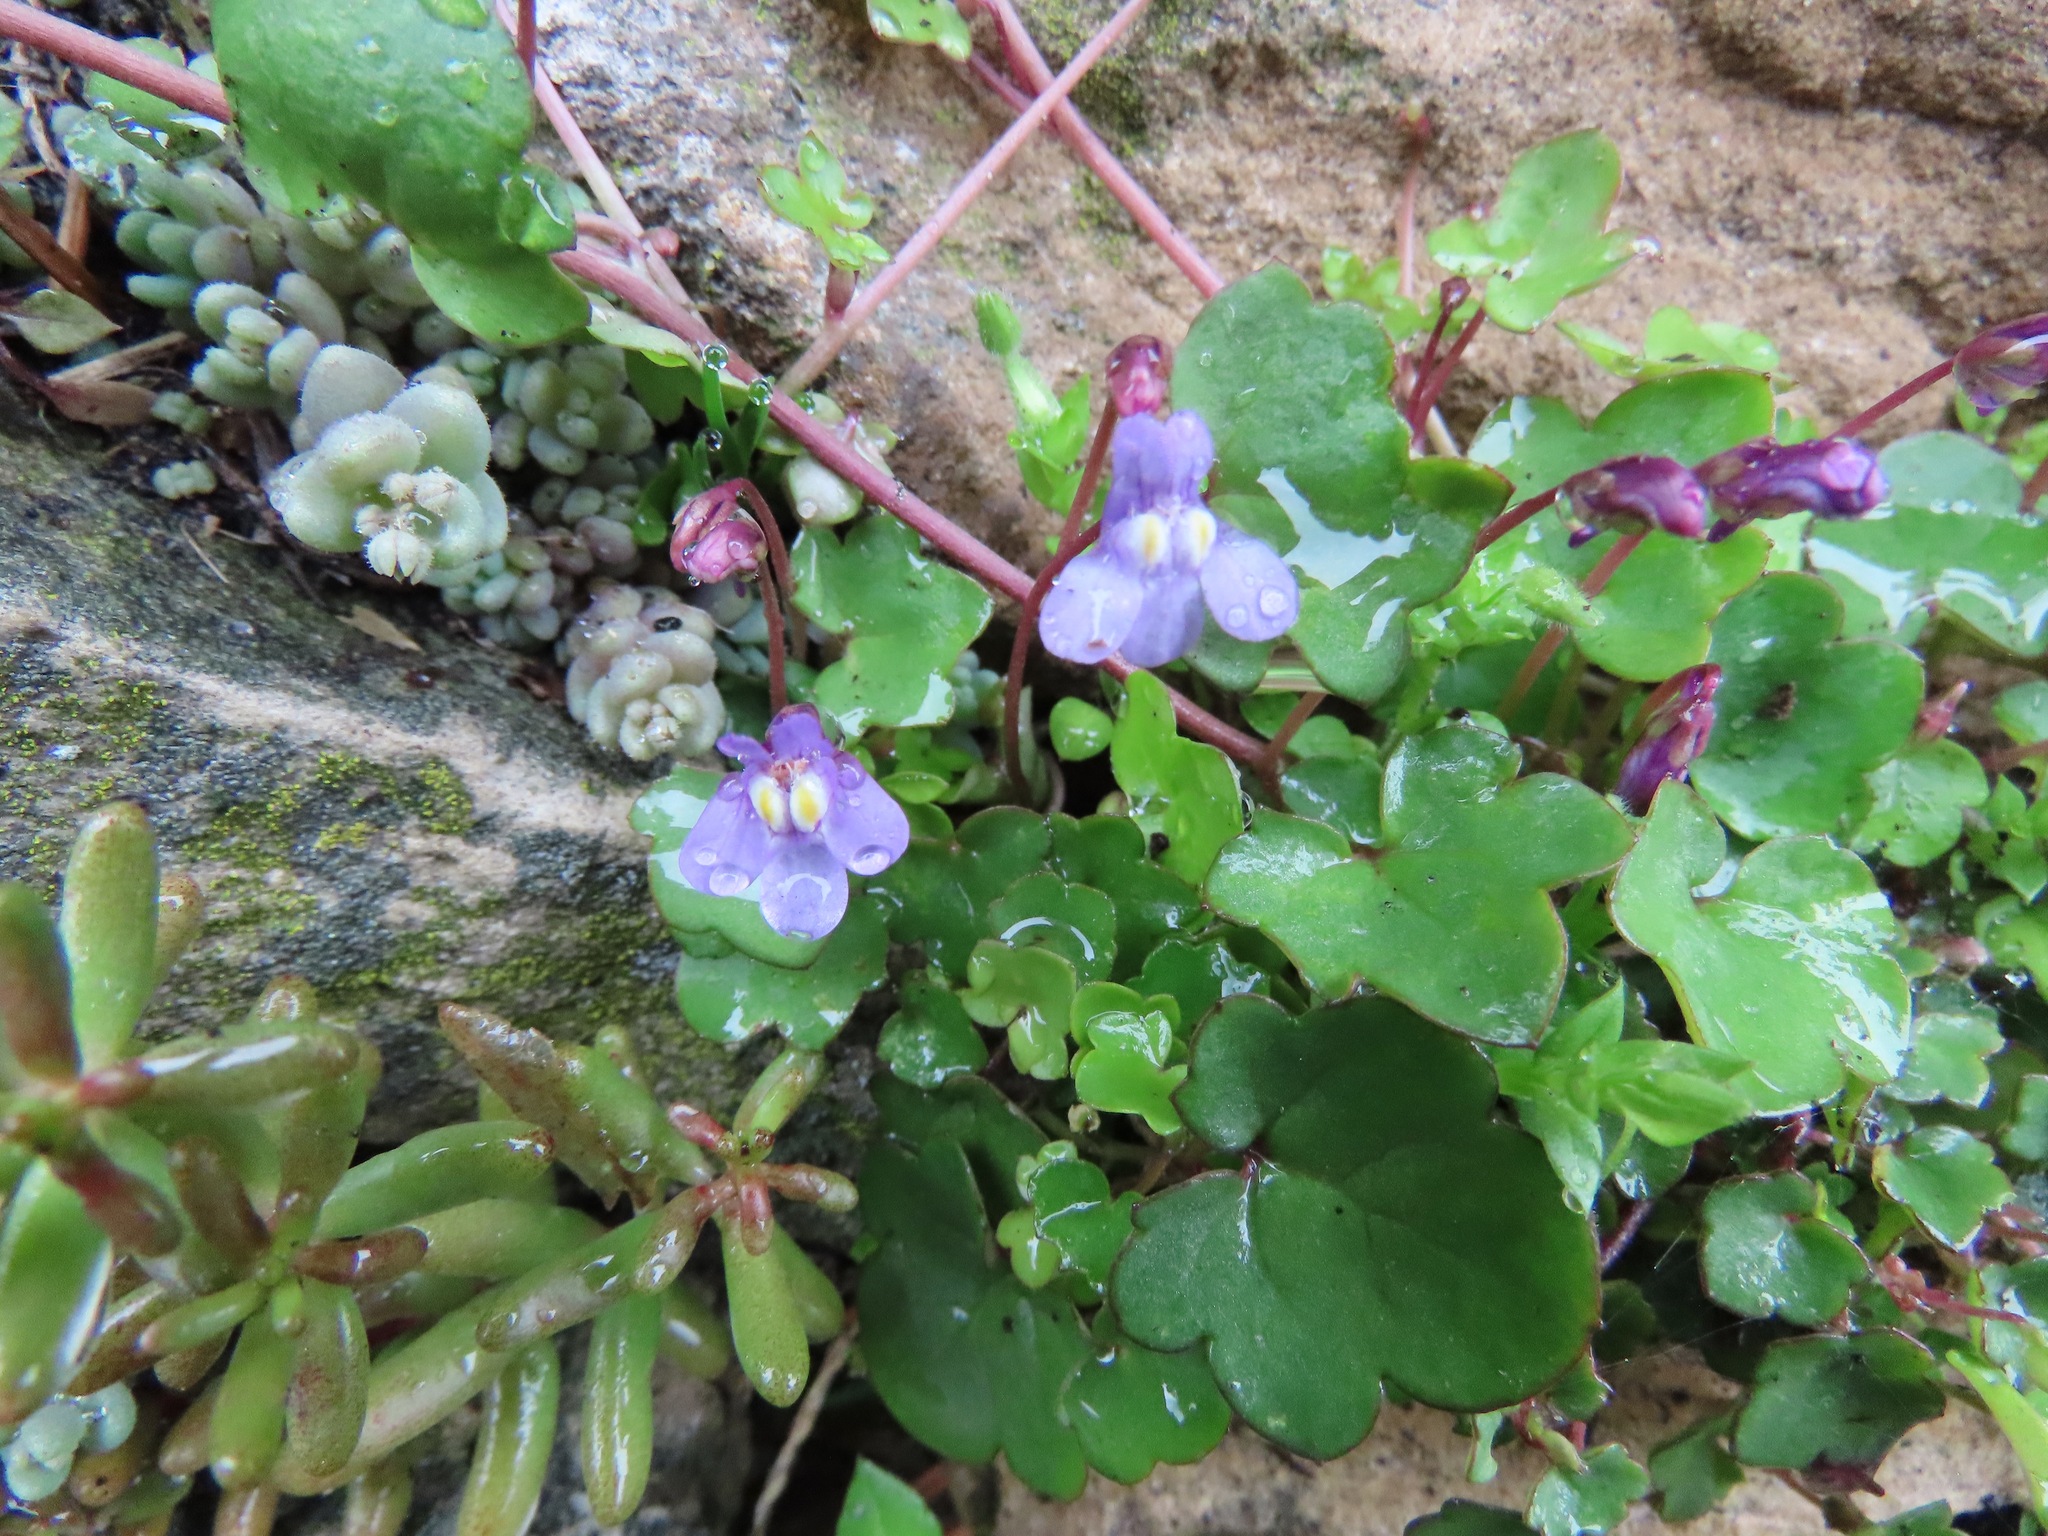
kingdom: Plantae
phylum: Tracheophyta
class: Magnoliopsida
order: Lamiales
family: Plantaginaceae
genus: Cymbalaria
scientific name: Cymbalaria muralis
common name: Ivy-leaved toadflax
